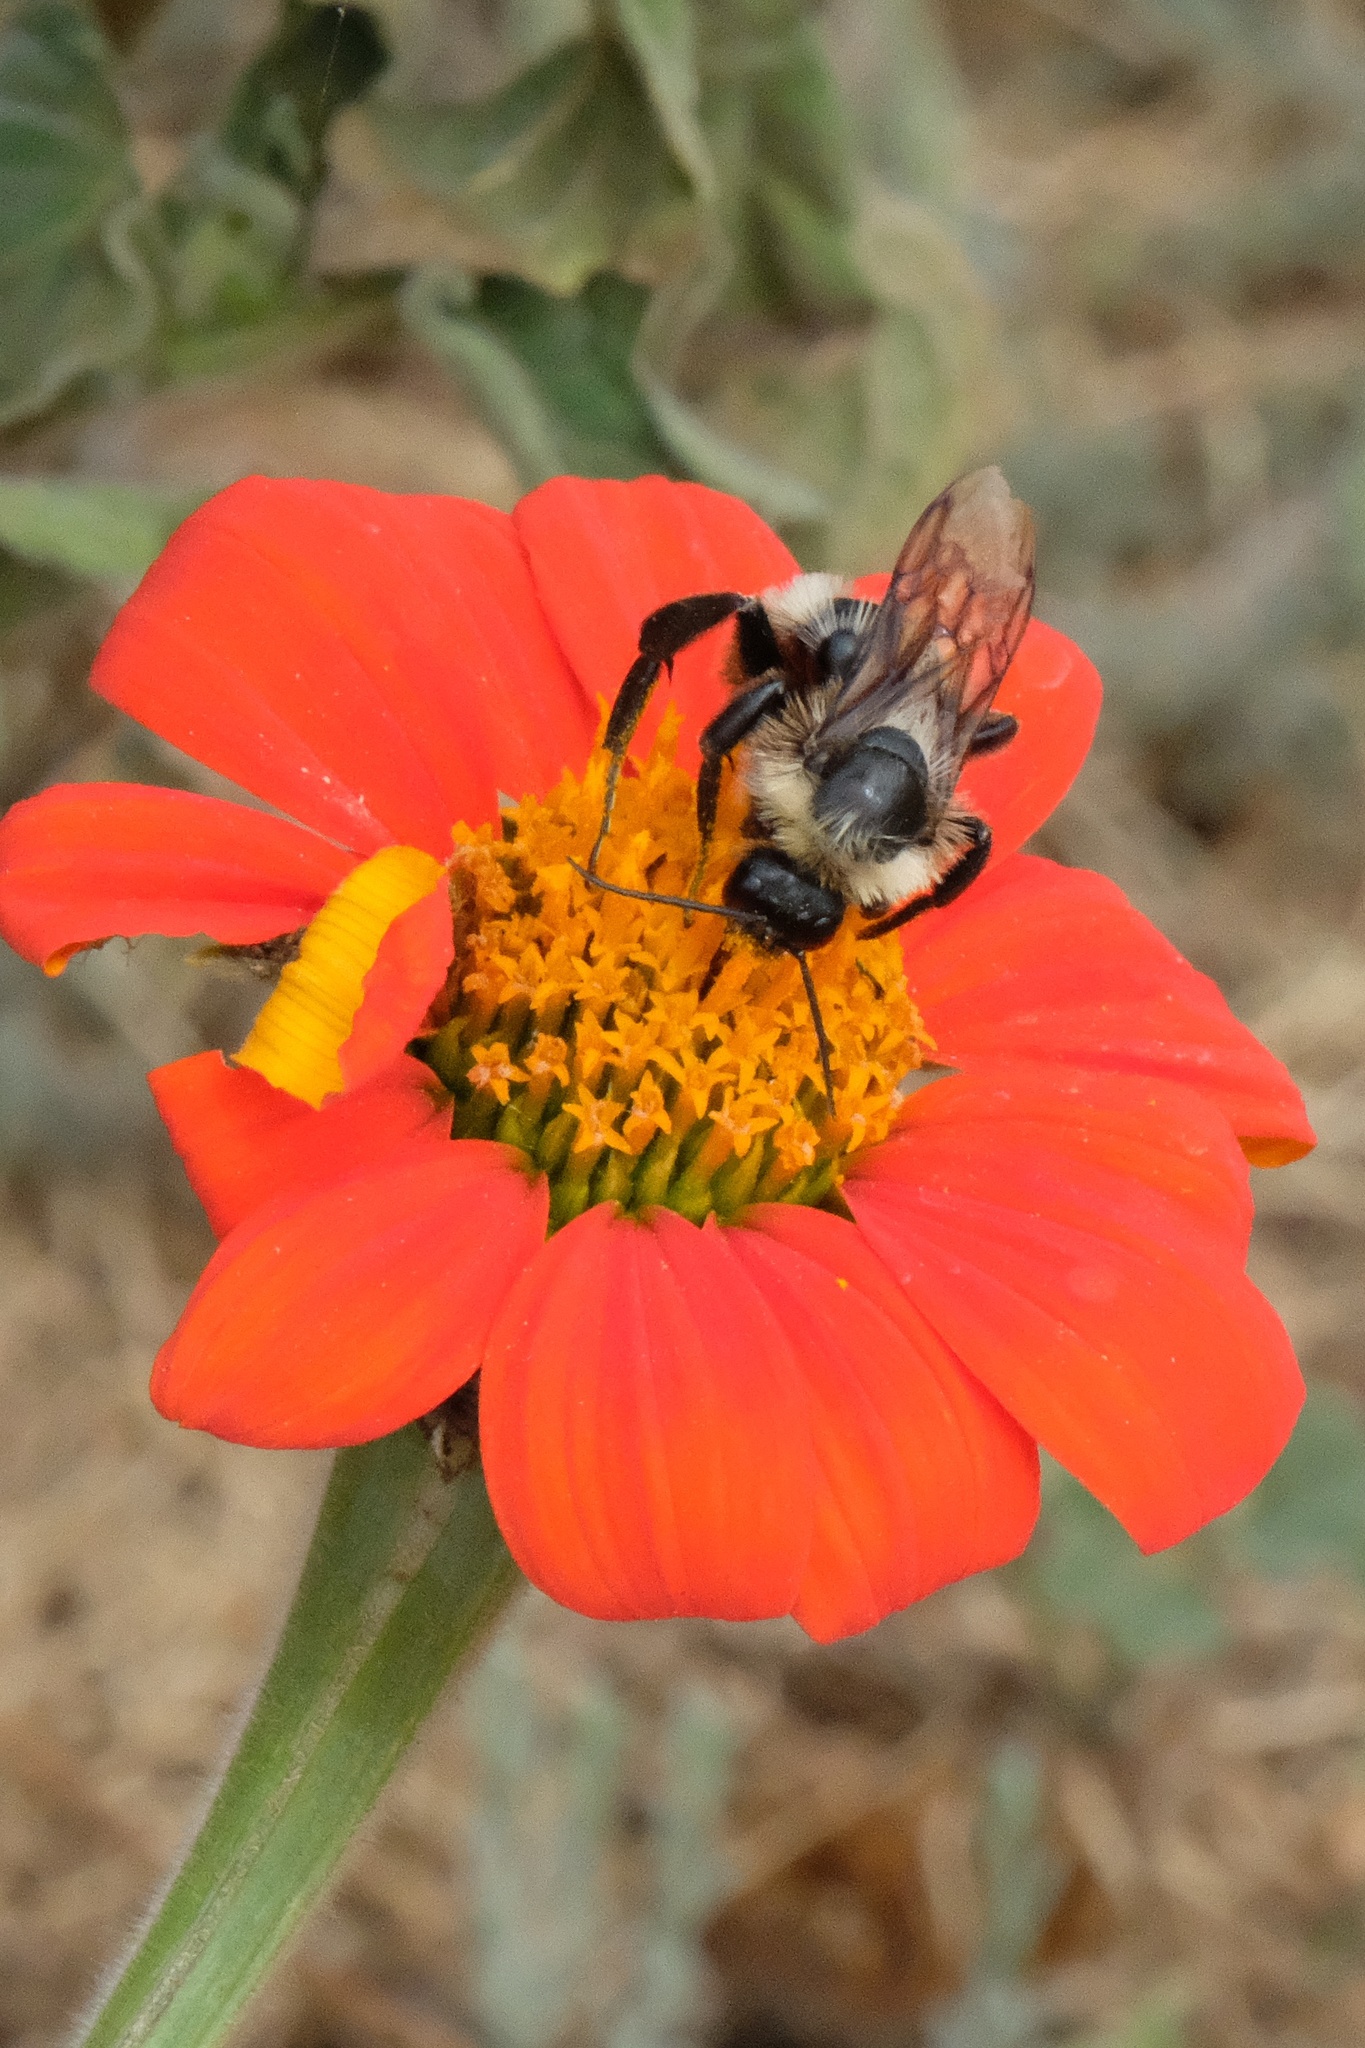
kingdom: Animalia
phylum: Arthropoda
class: Insecta
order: Hymenoptera
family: Apidae
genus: Bombus
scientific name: Bombus californicus
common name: California bumble bee
